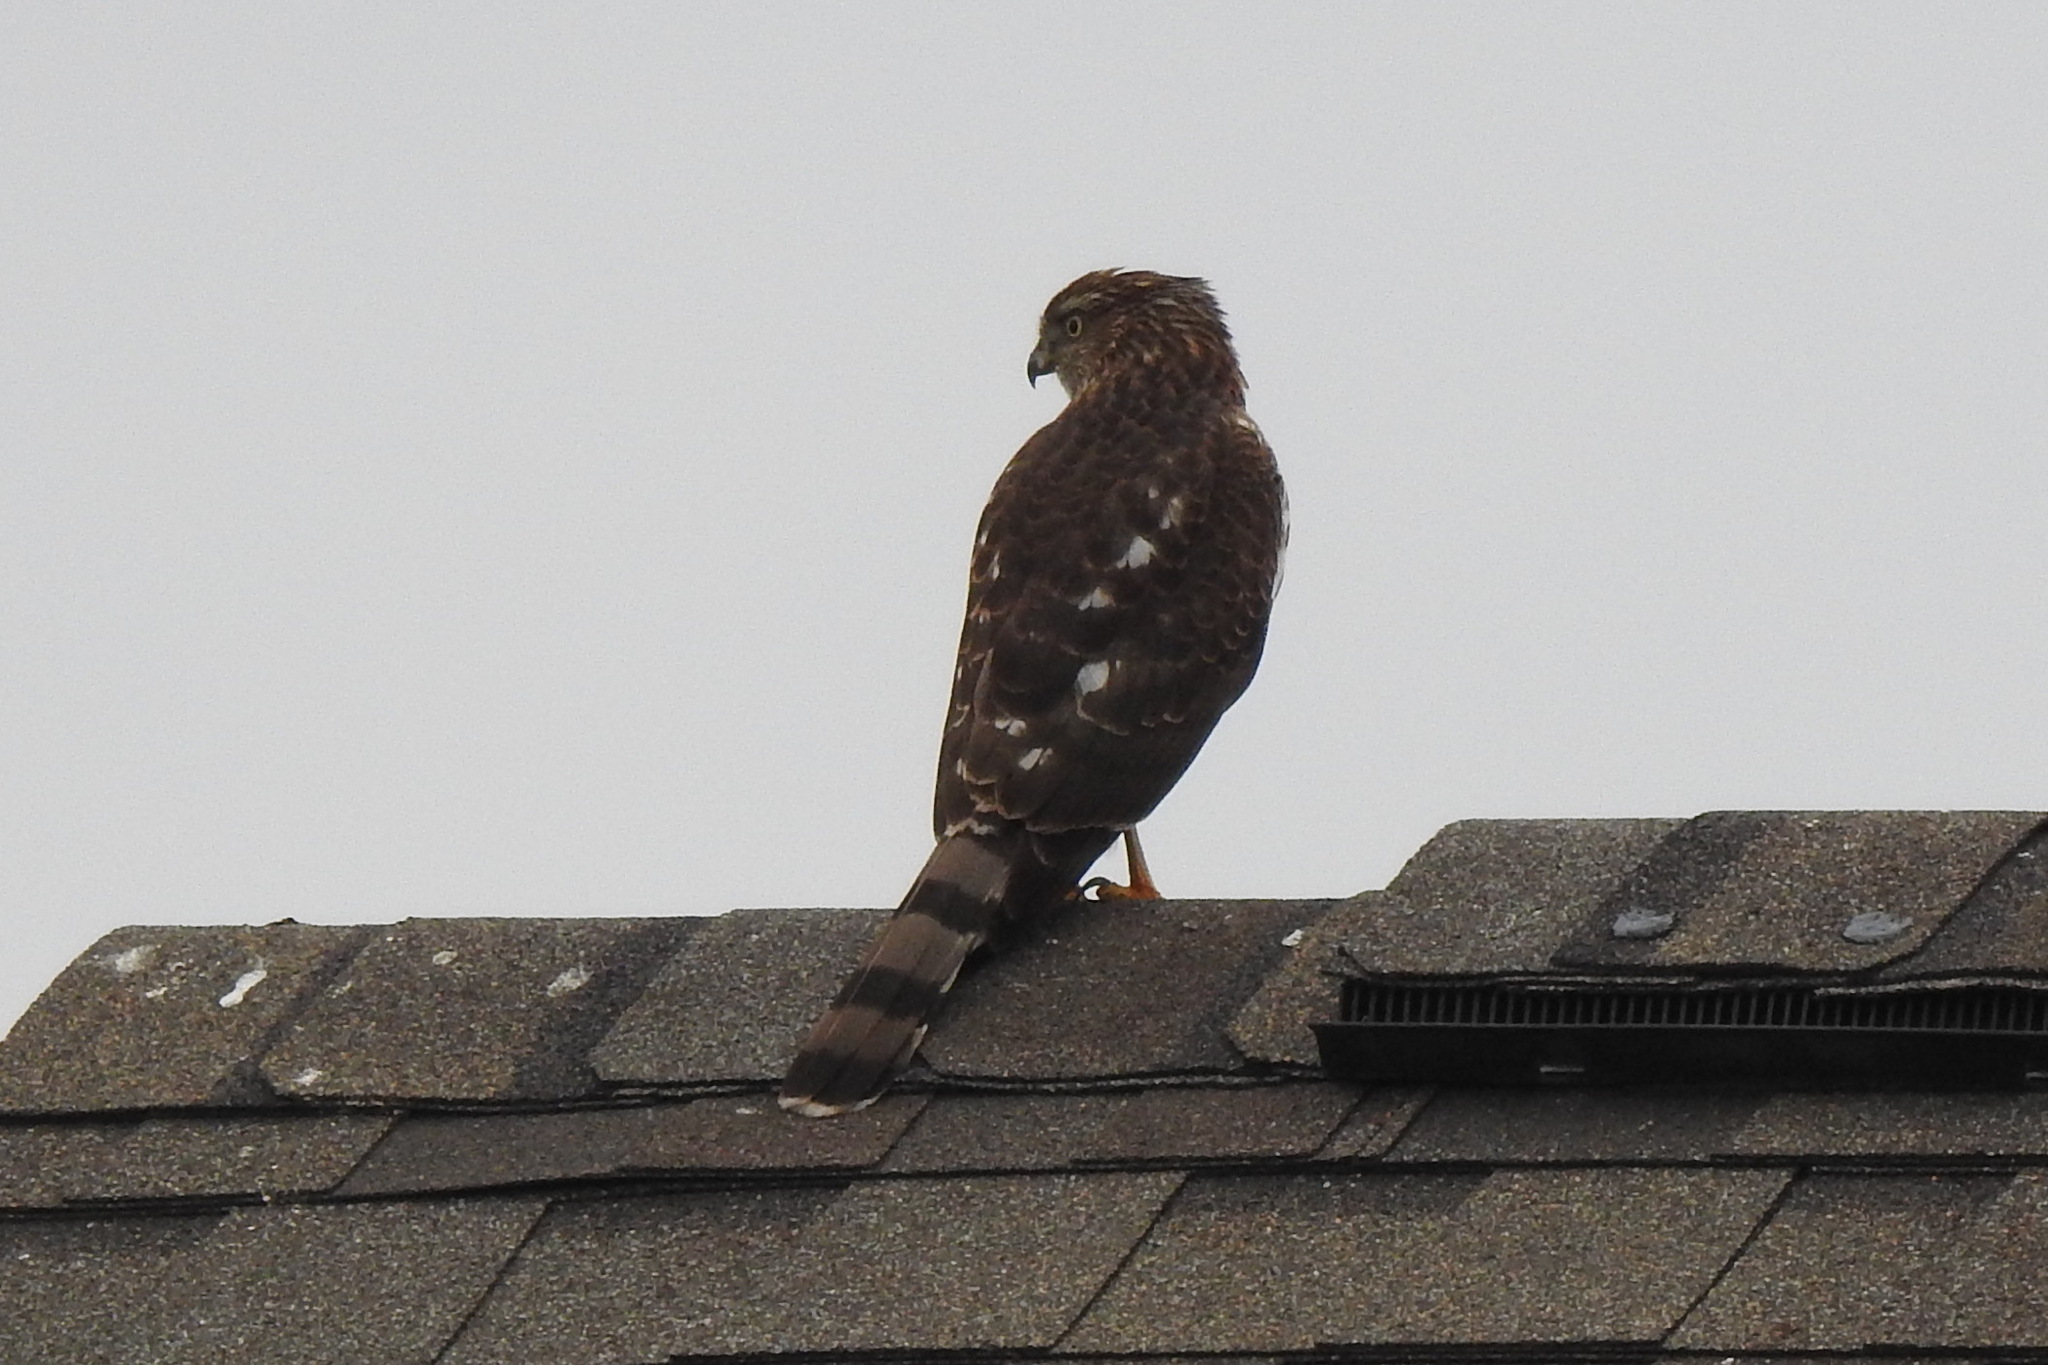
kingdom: Animalia
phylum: Chordata
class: Aves
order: Accipitriformes
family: Accipitridae
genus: Accipiter
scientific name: Accipiter cooperii
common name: Cooper's hawk
